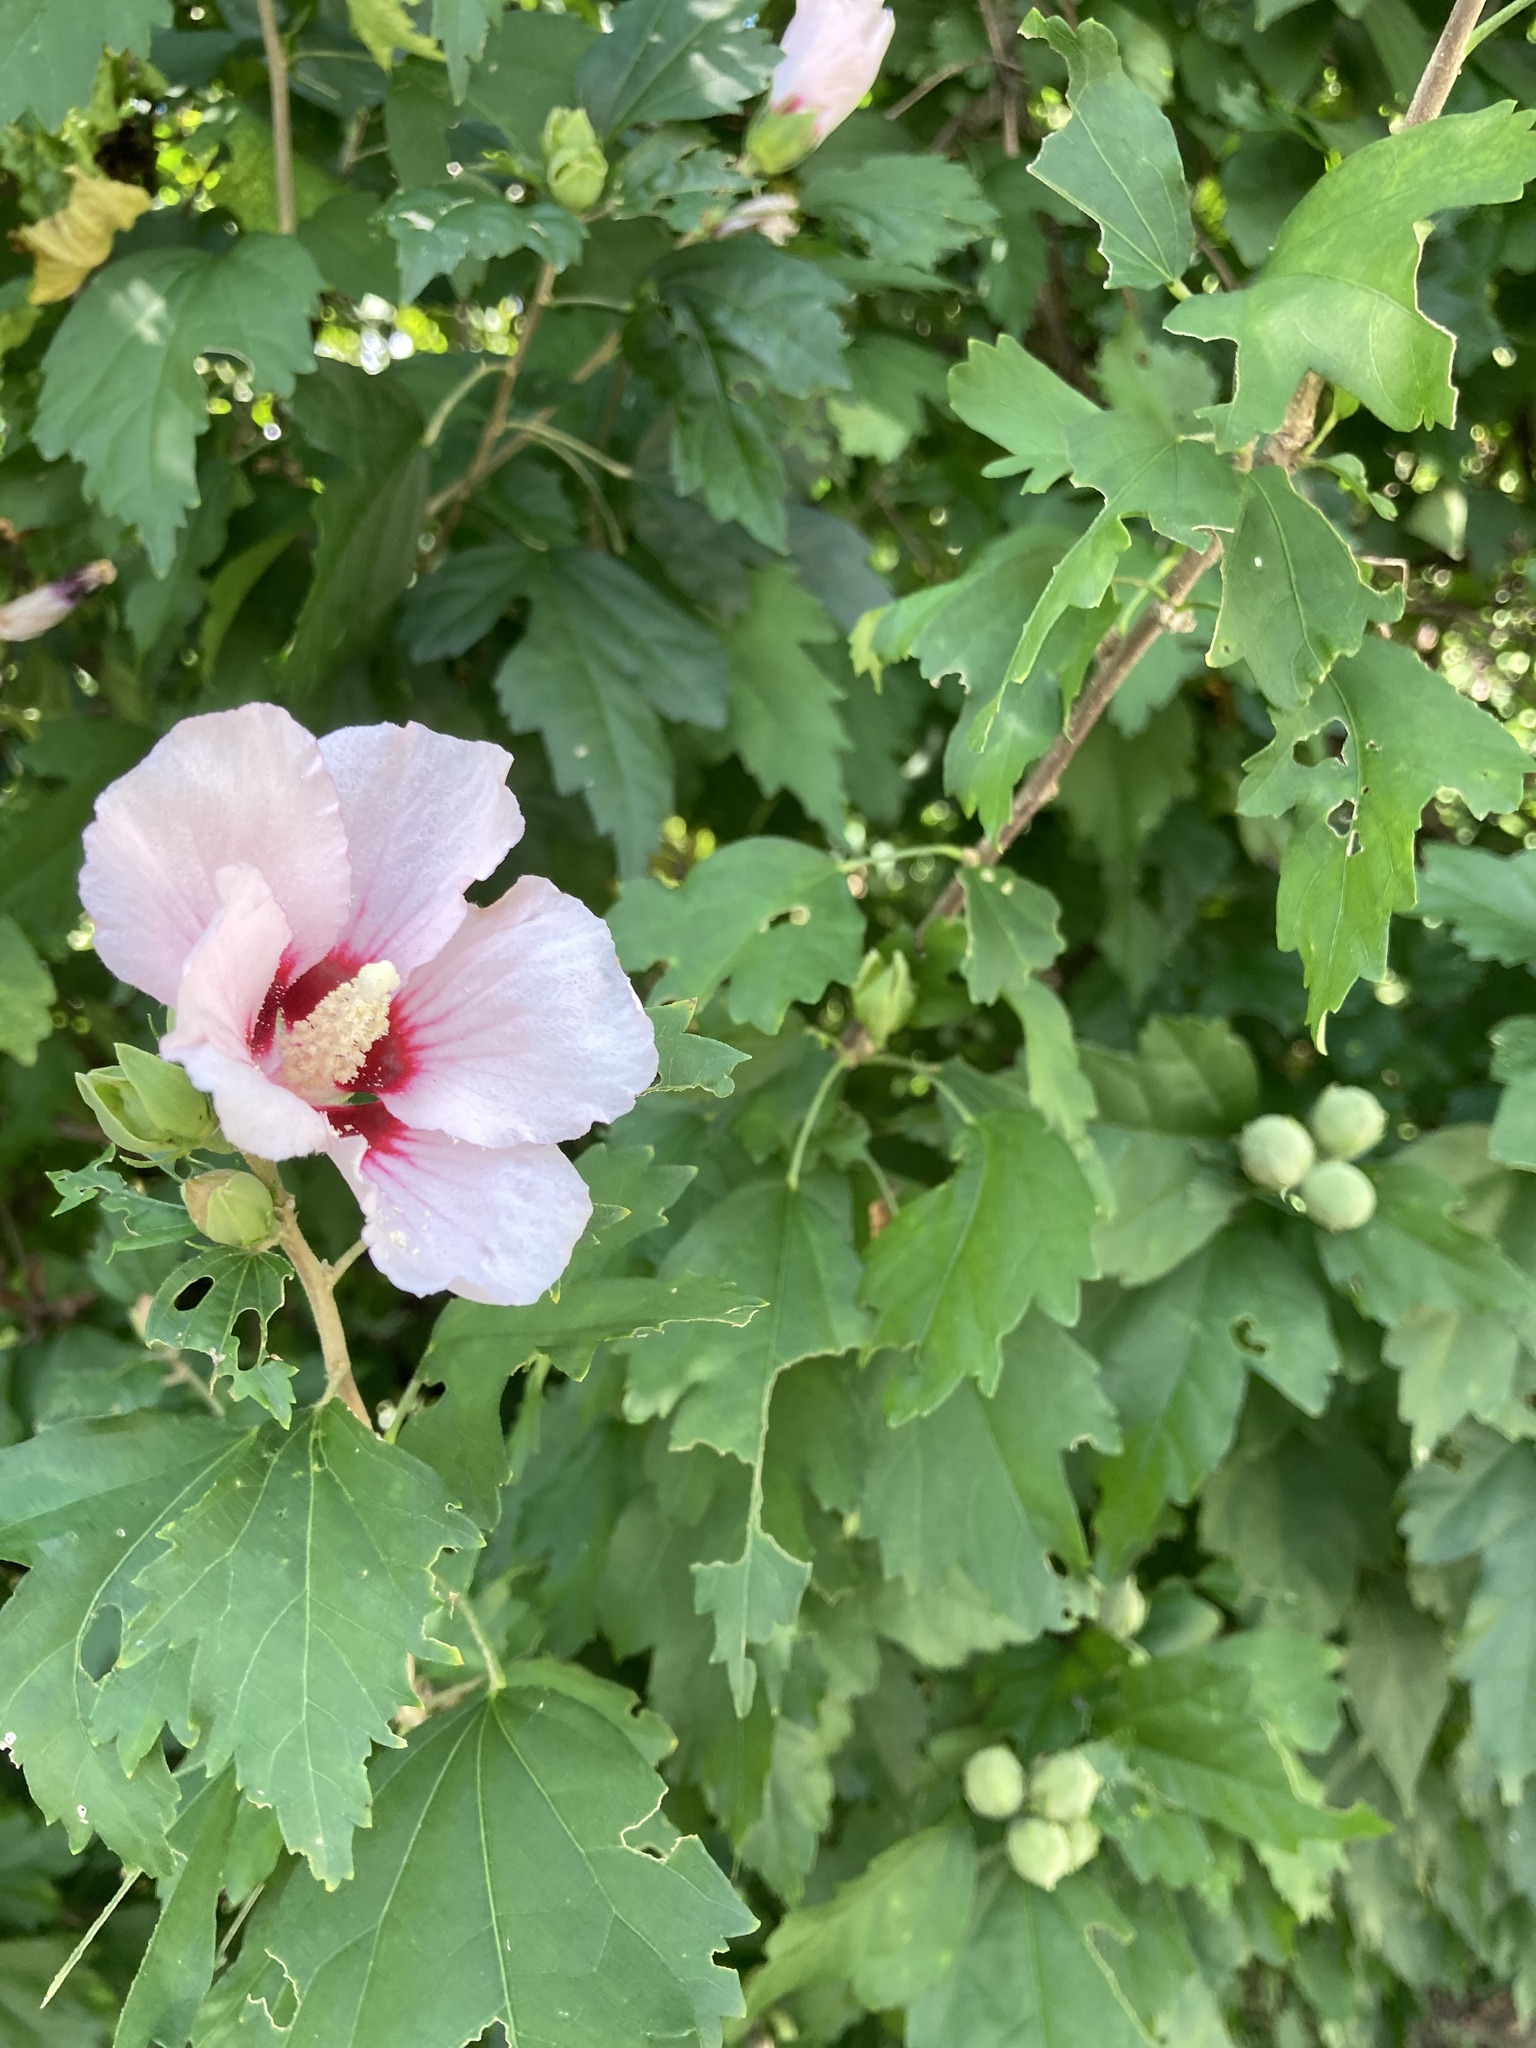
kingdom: Plantae
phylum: Tracheophyta
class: Magnoliopsida
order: Malvales
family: Malvaceae
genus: Hibiscus
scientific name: Hibiscus syriacus
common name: Syrian ketmia
